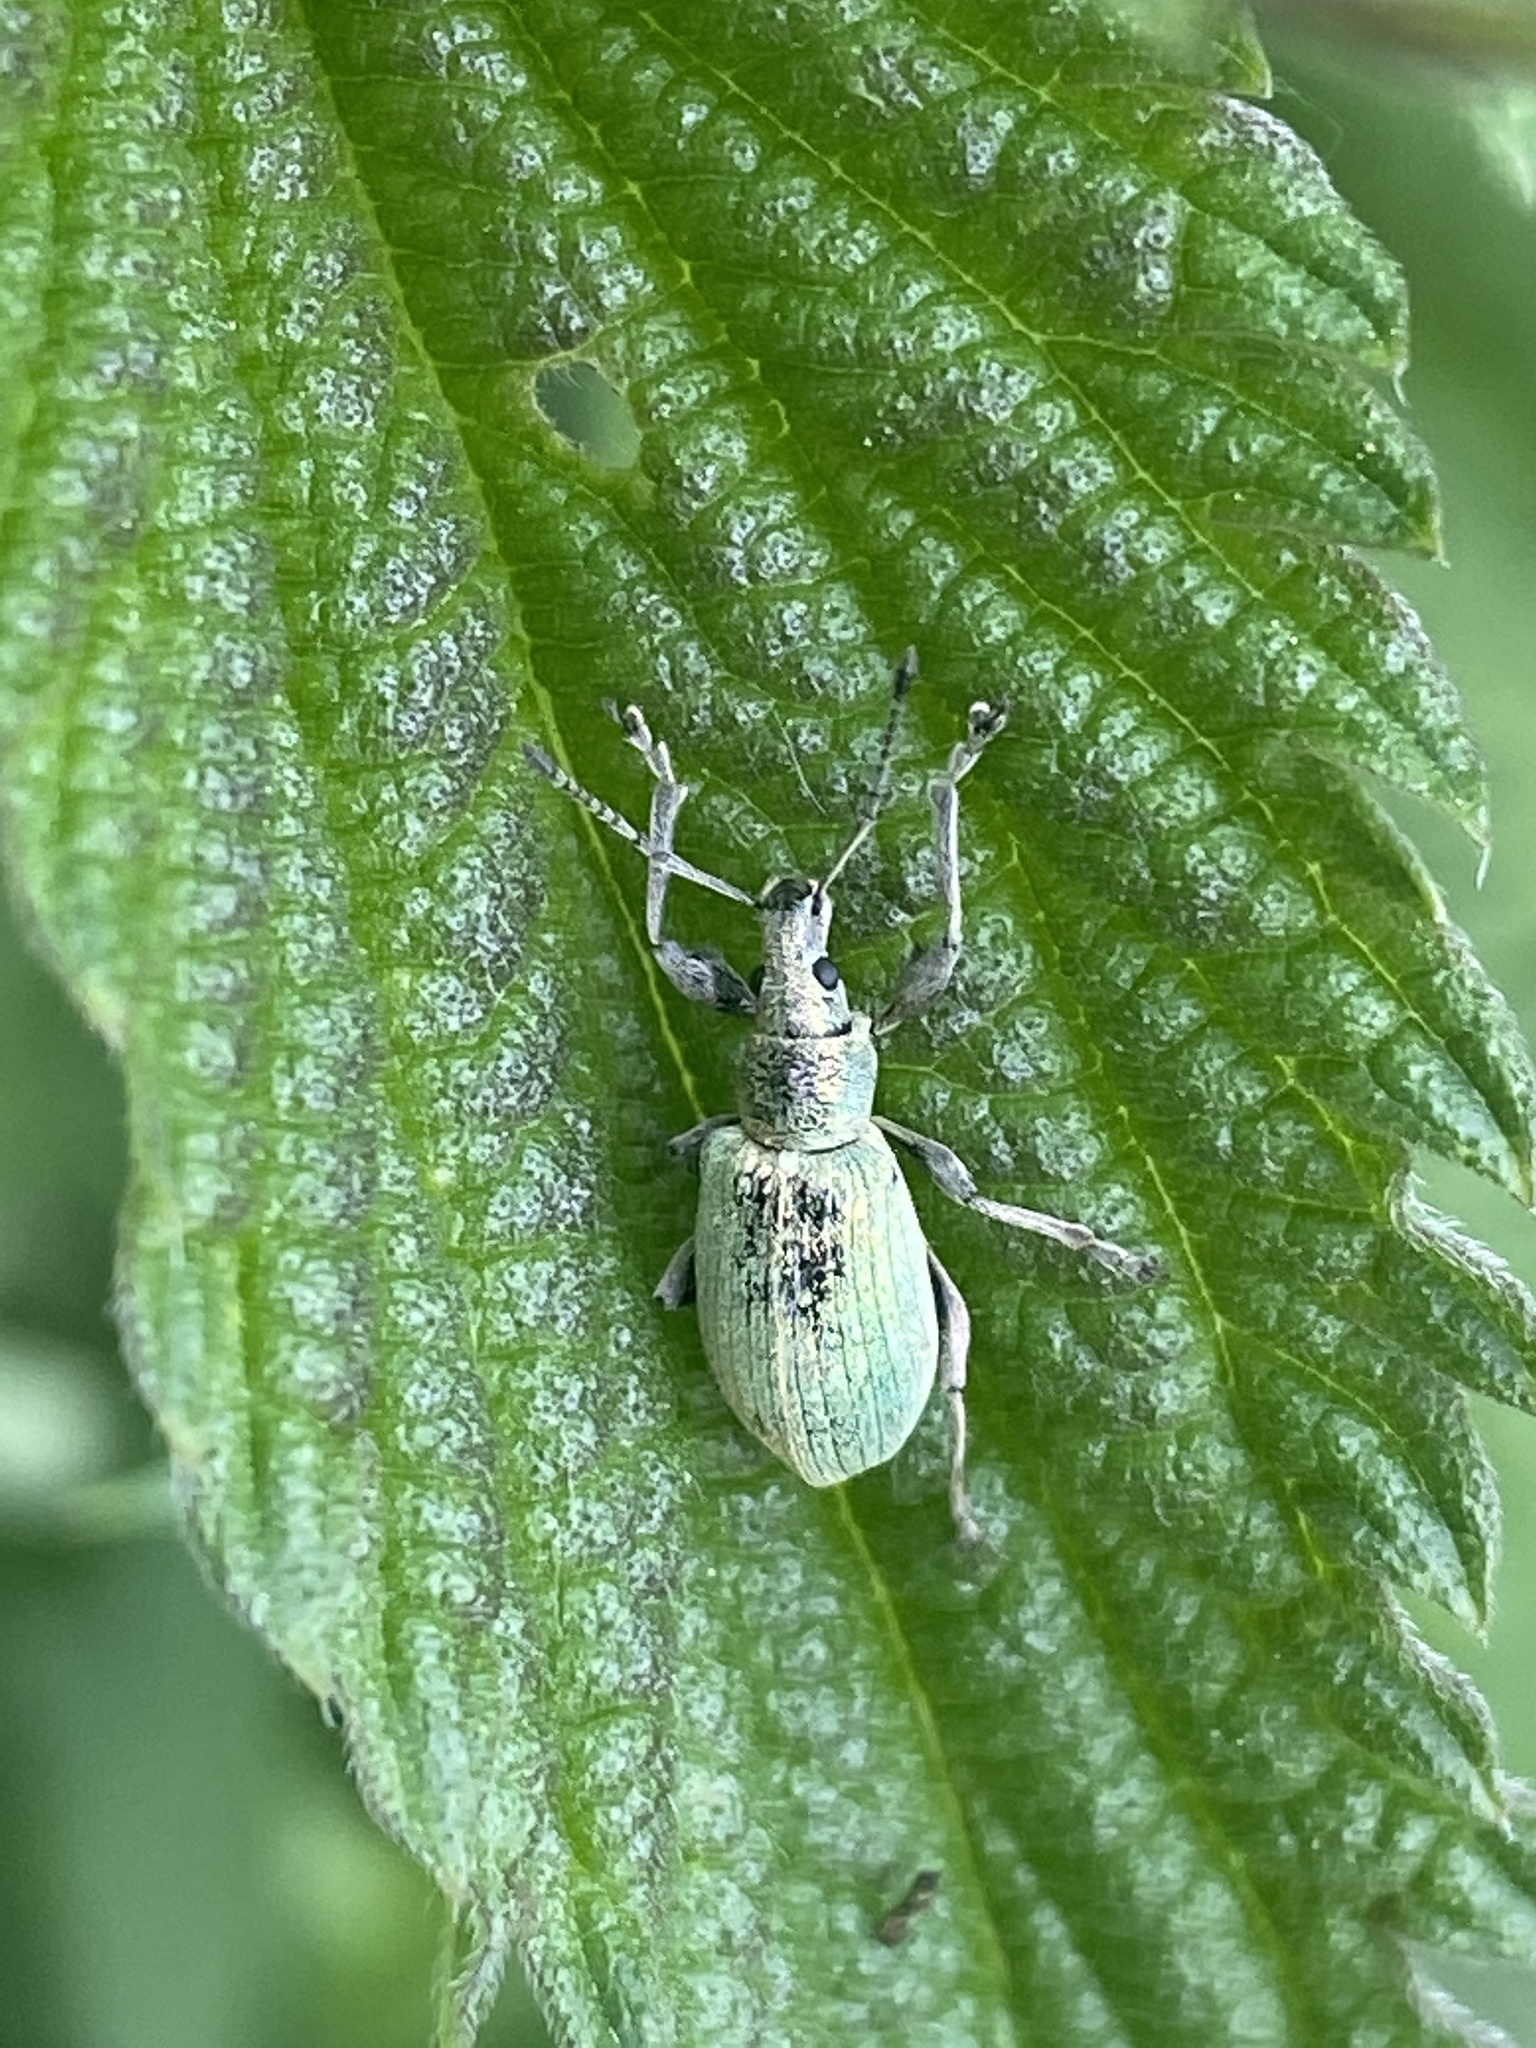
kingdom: Animalia
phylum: Arthropoda
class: Insecta
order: Coleoptera
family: Curculionidae
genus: Phyllobius
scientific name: Phyllobius pomaceus
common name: Green nettle weevil
